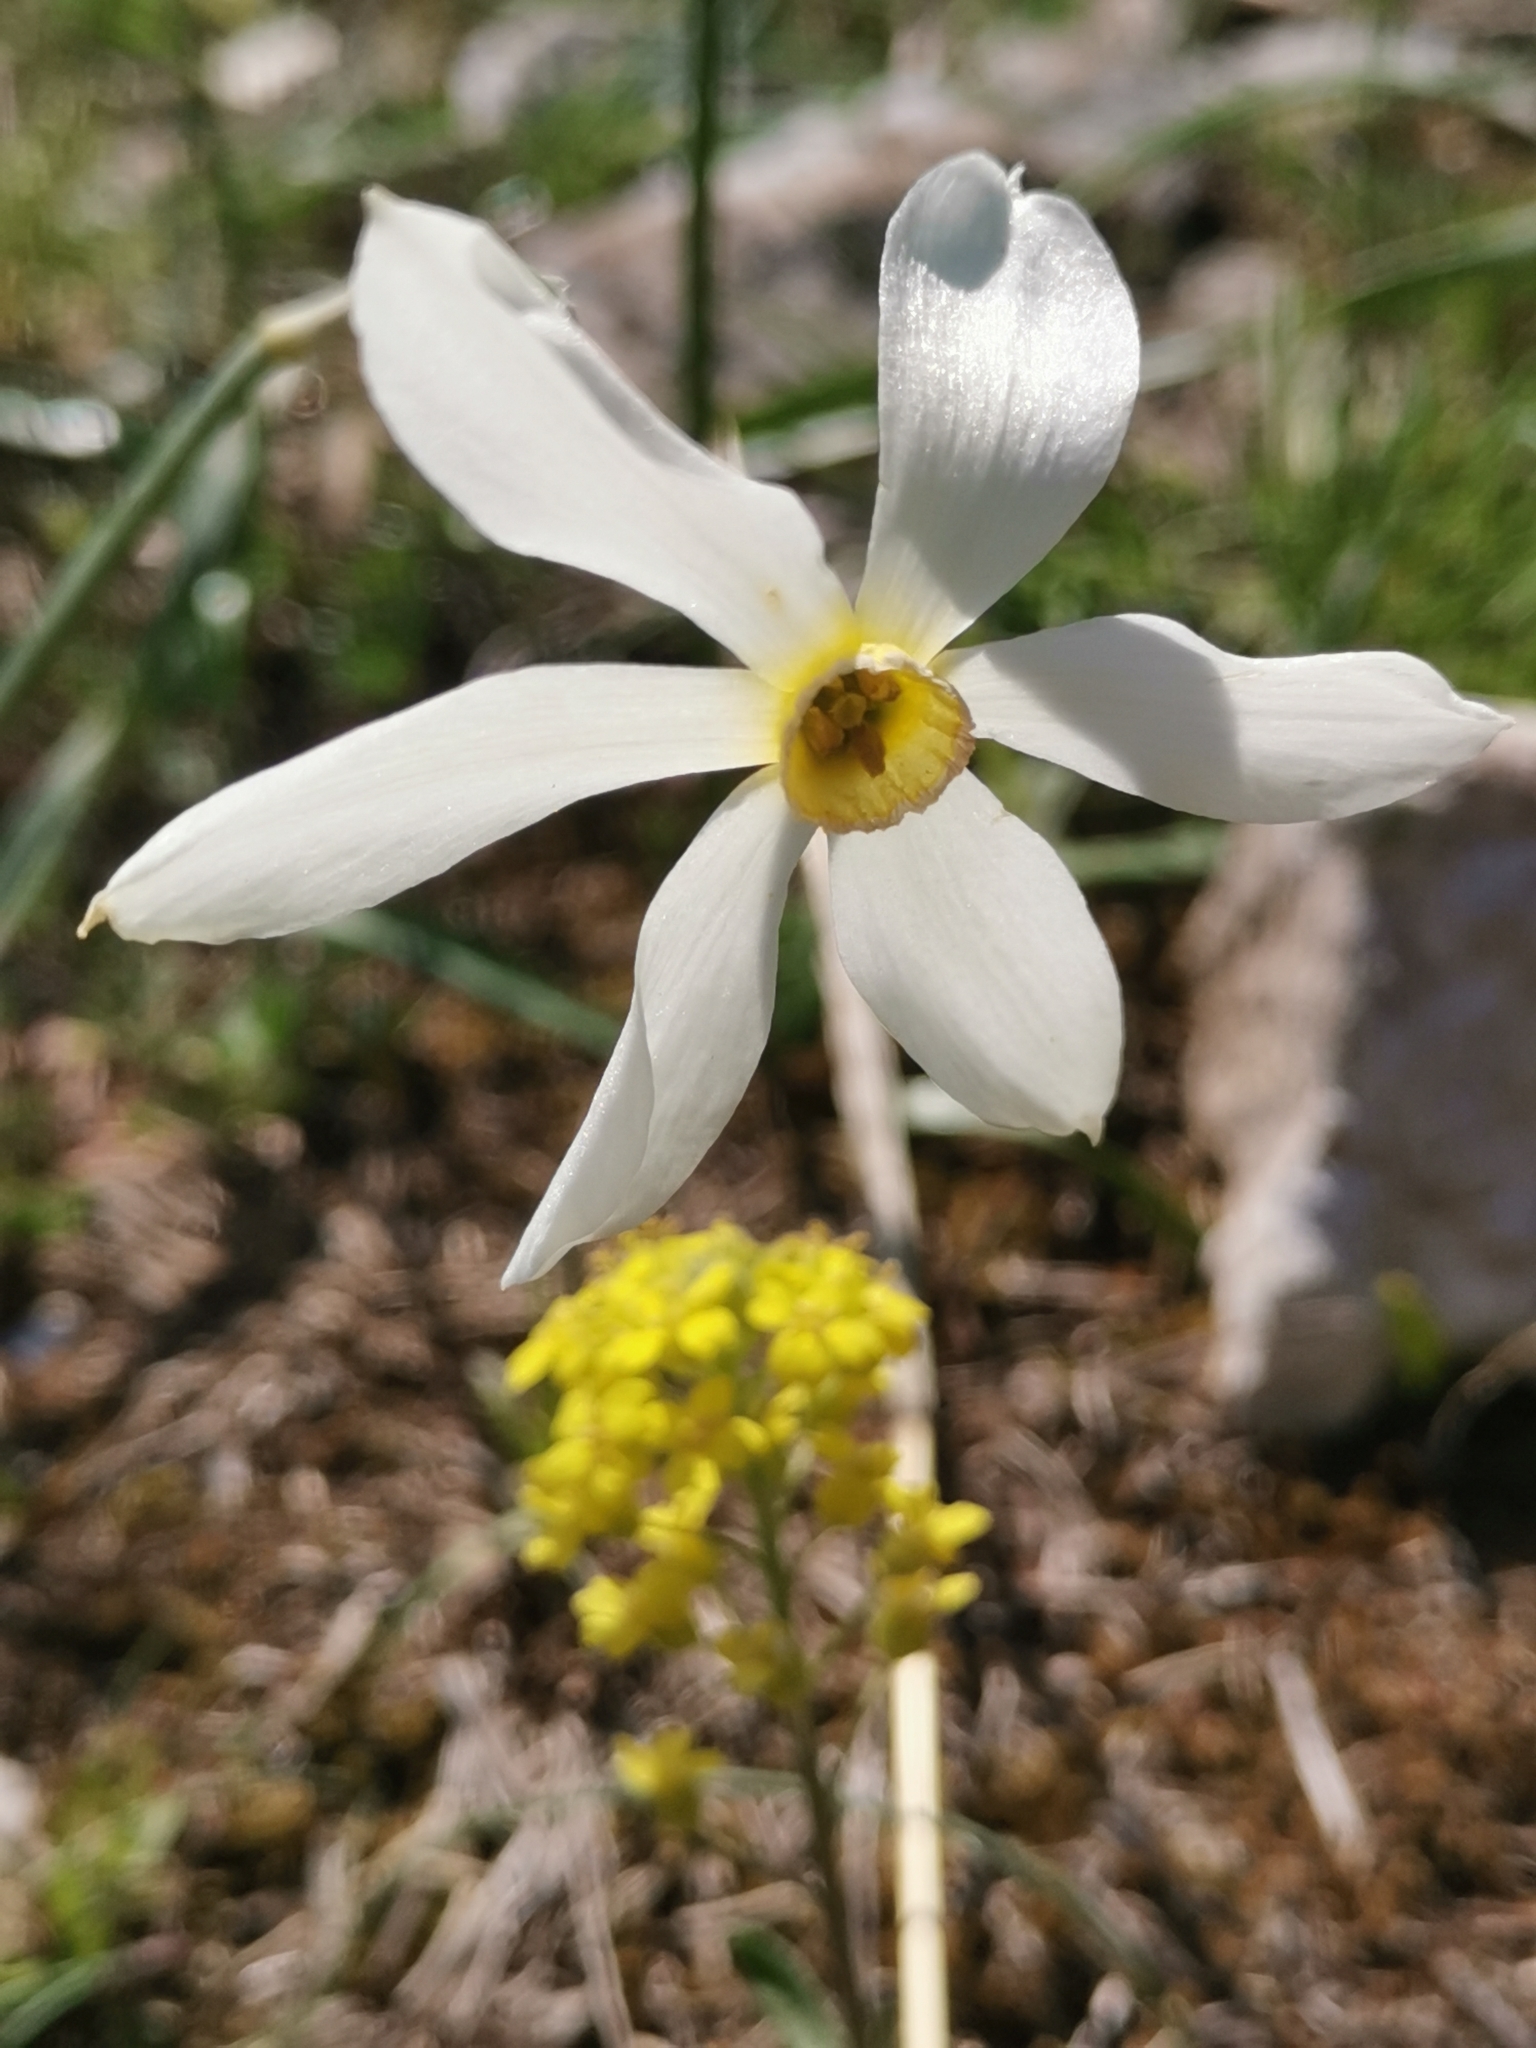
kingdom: Plantae
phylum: Tracheophyta
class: Liliopsida
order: Asparagales
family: Amaryllidaceae
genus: Narcissus
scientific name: Narcissus poeticus
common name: Pheasant's-eye daffodil
